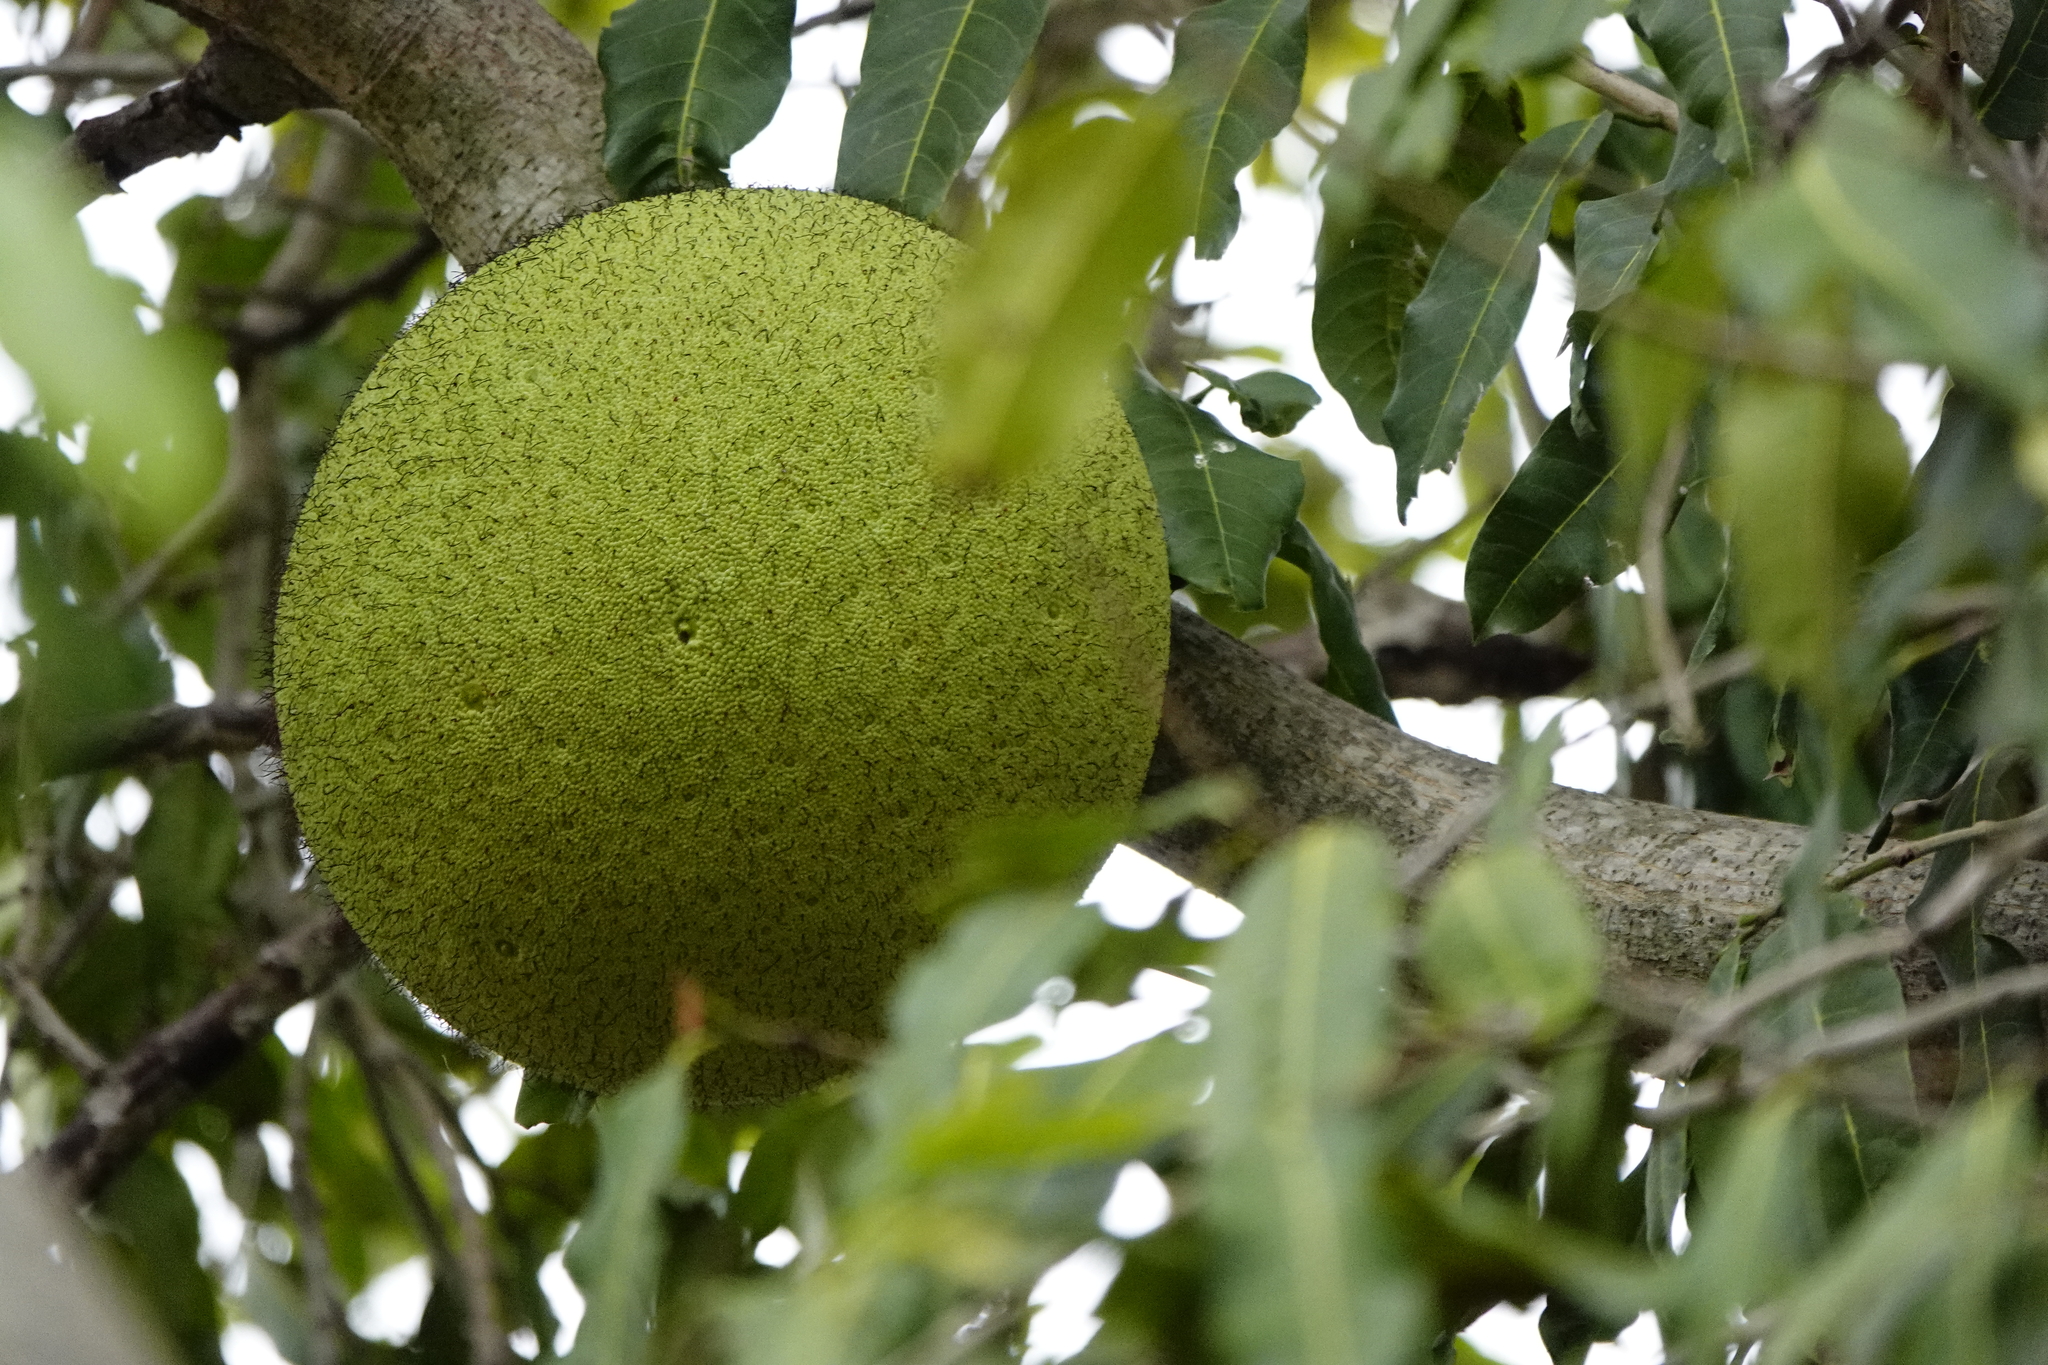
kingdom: Plantae
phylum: Tracheophyta
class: Magnoliopsida
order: Rosales
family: Moraceae
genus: Treculia
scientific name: Treculia africana
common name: African breadfruit
